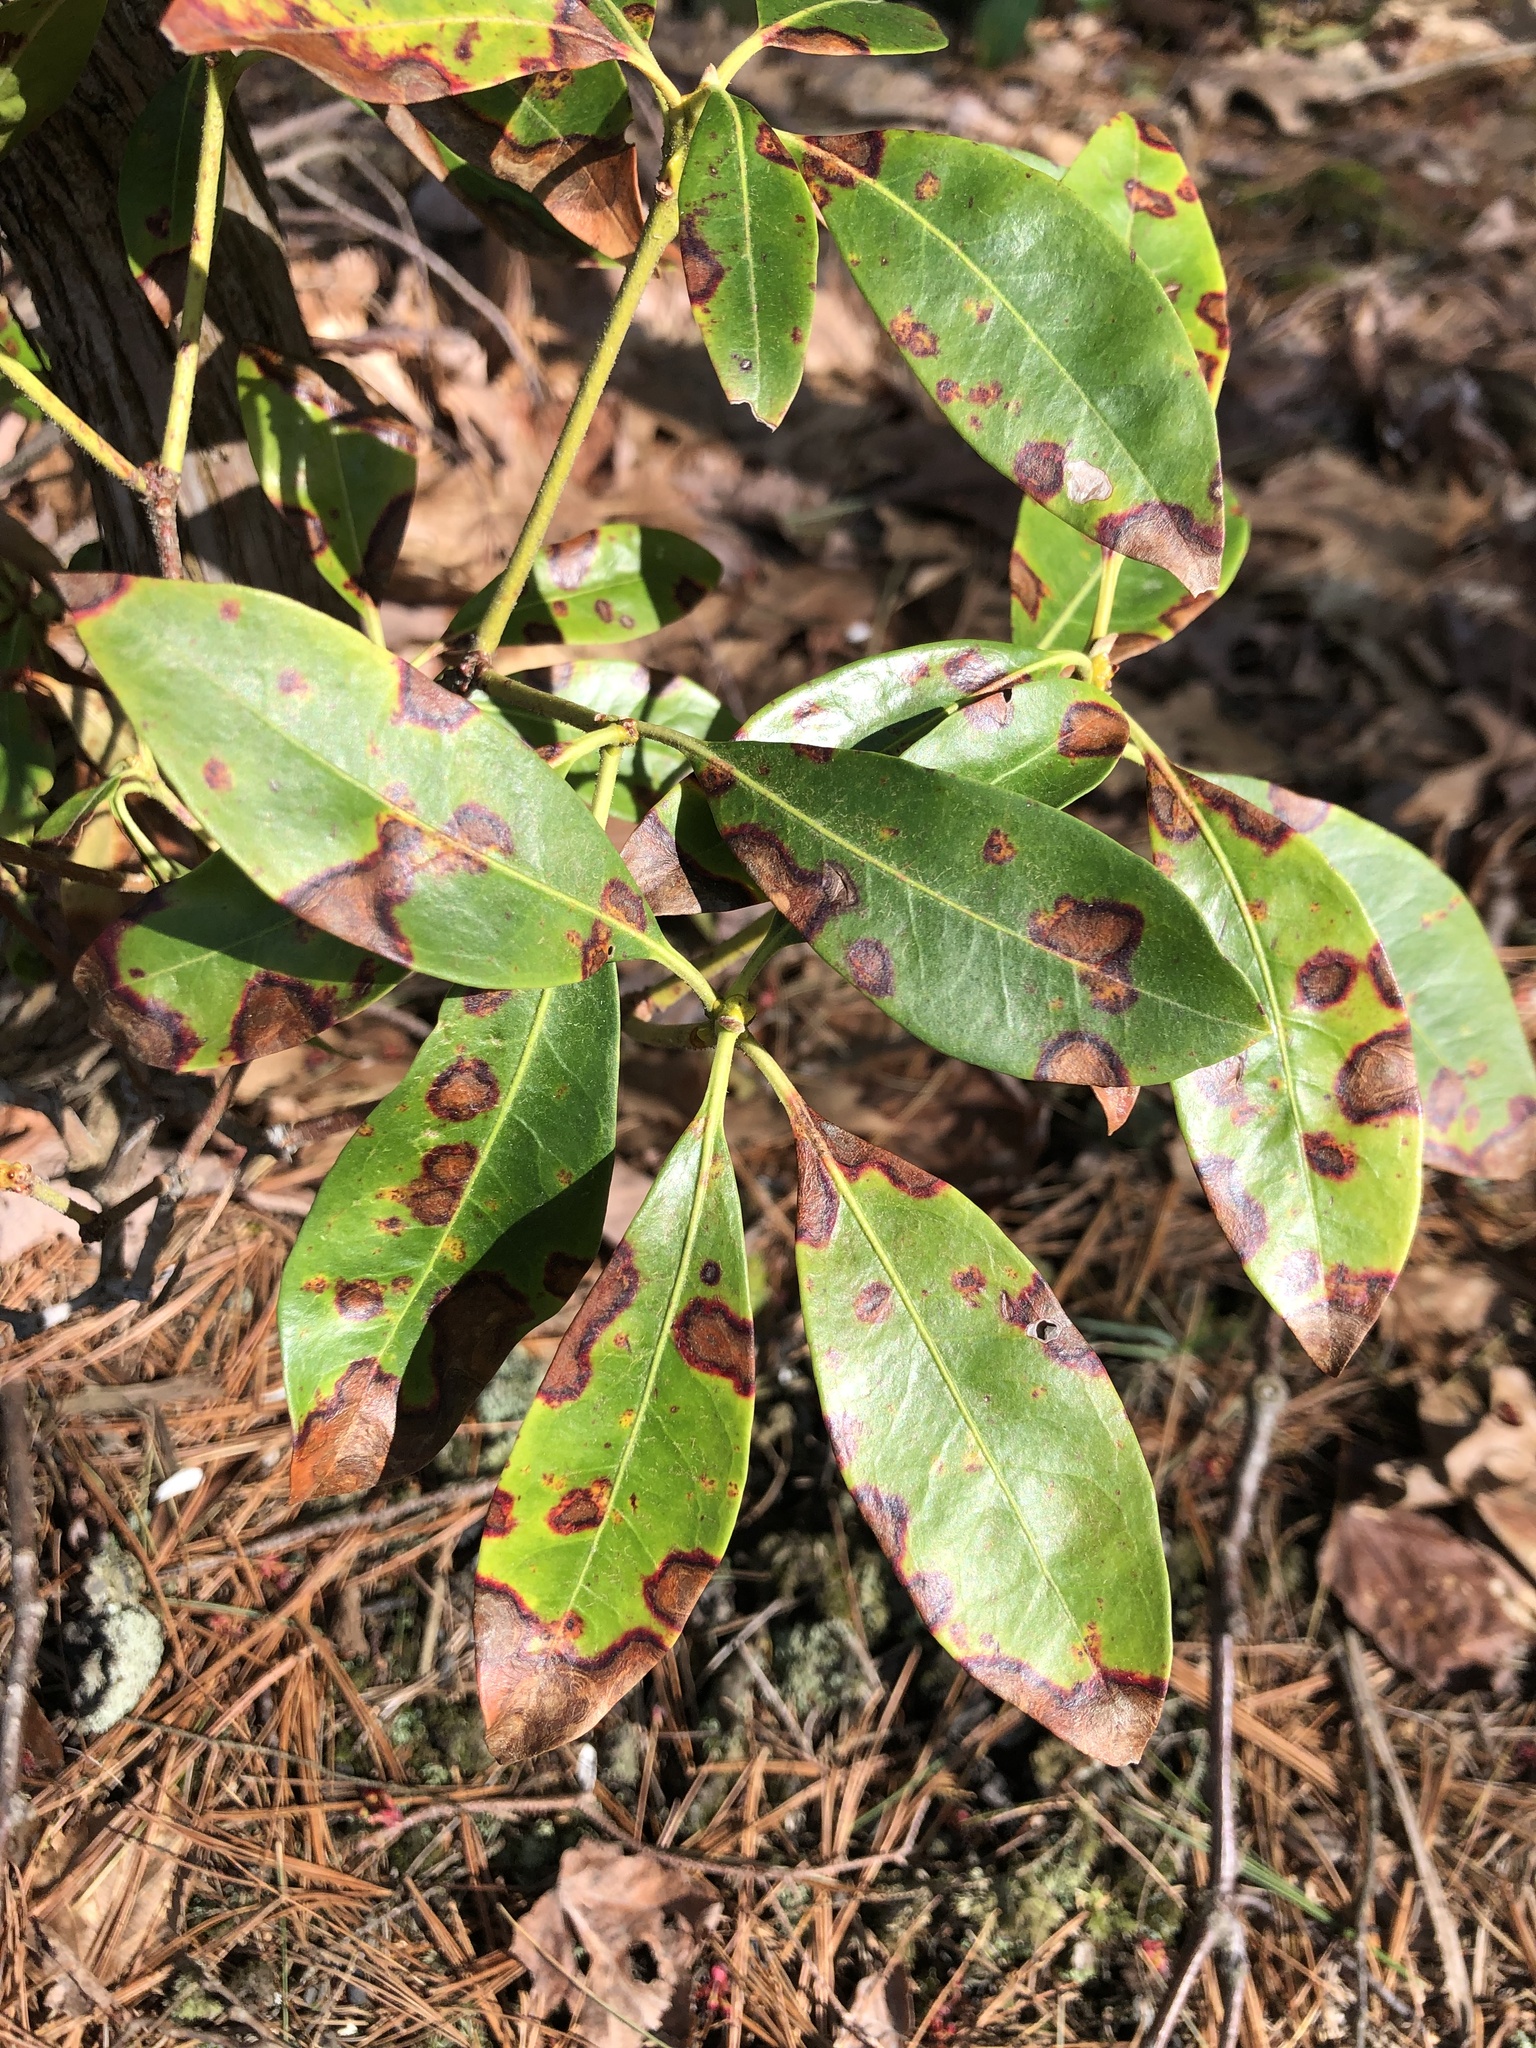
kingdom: Plantae
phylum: Tracheophyta
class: Magnoliopsida
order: Ericales
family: Ericaceae
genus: Kalmia
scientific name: Kalmia latifolia
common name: Mountain-laurel
